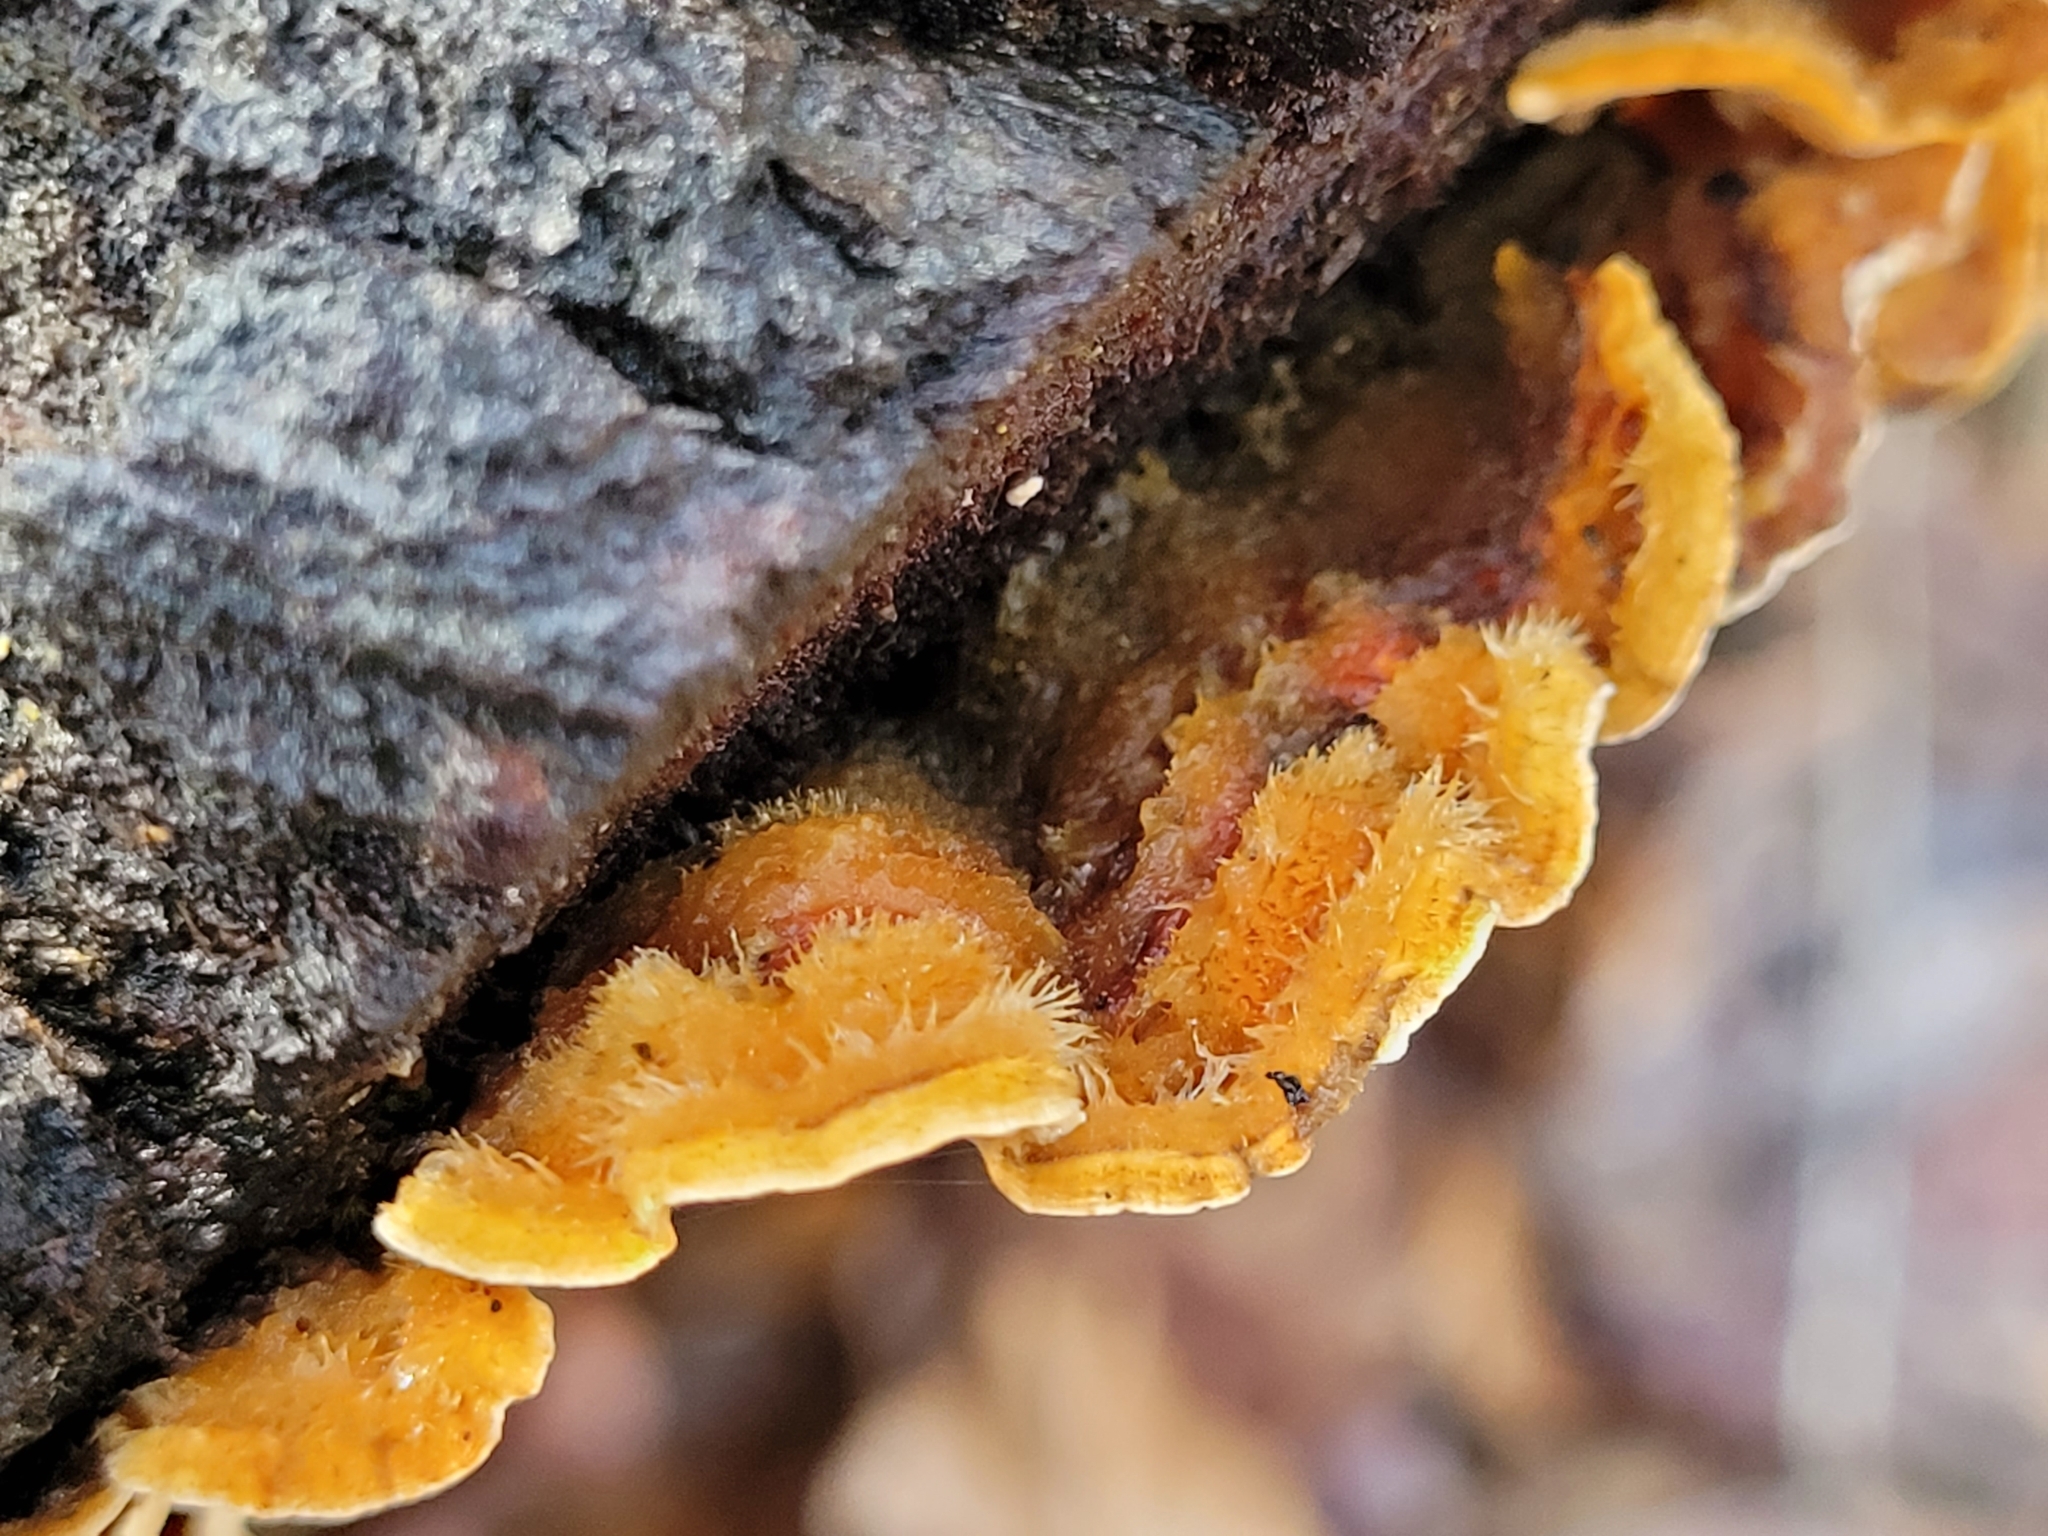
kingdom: Fungi
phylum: Basidiomycota
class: Agaricomycetes
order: Russulales
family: Stereaceae
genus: Stereum
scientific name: Stereum hirsutum
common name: Hairy curtain crust
